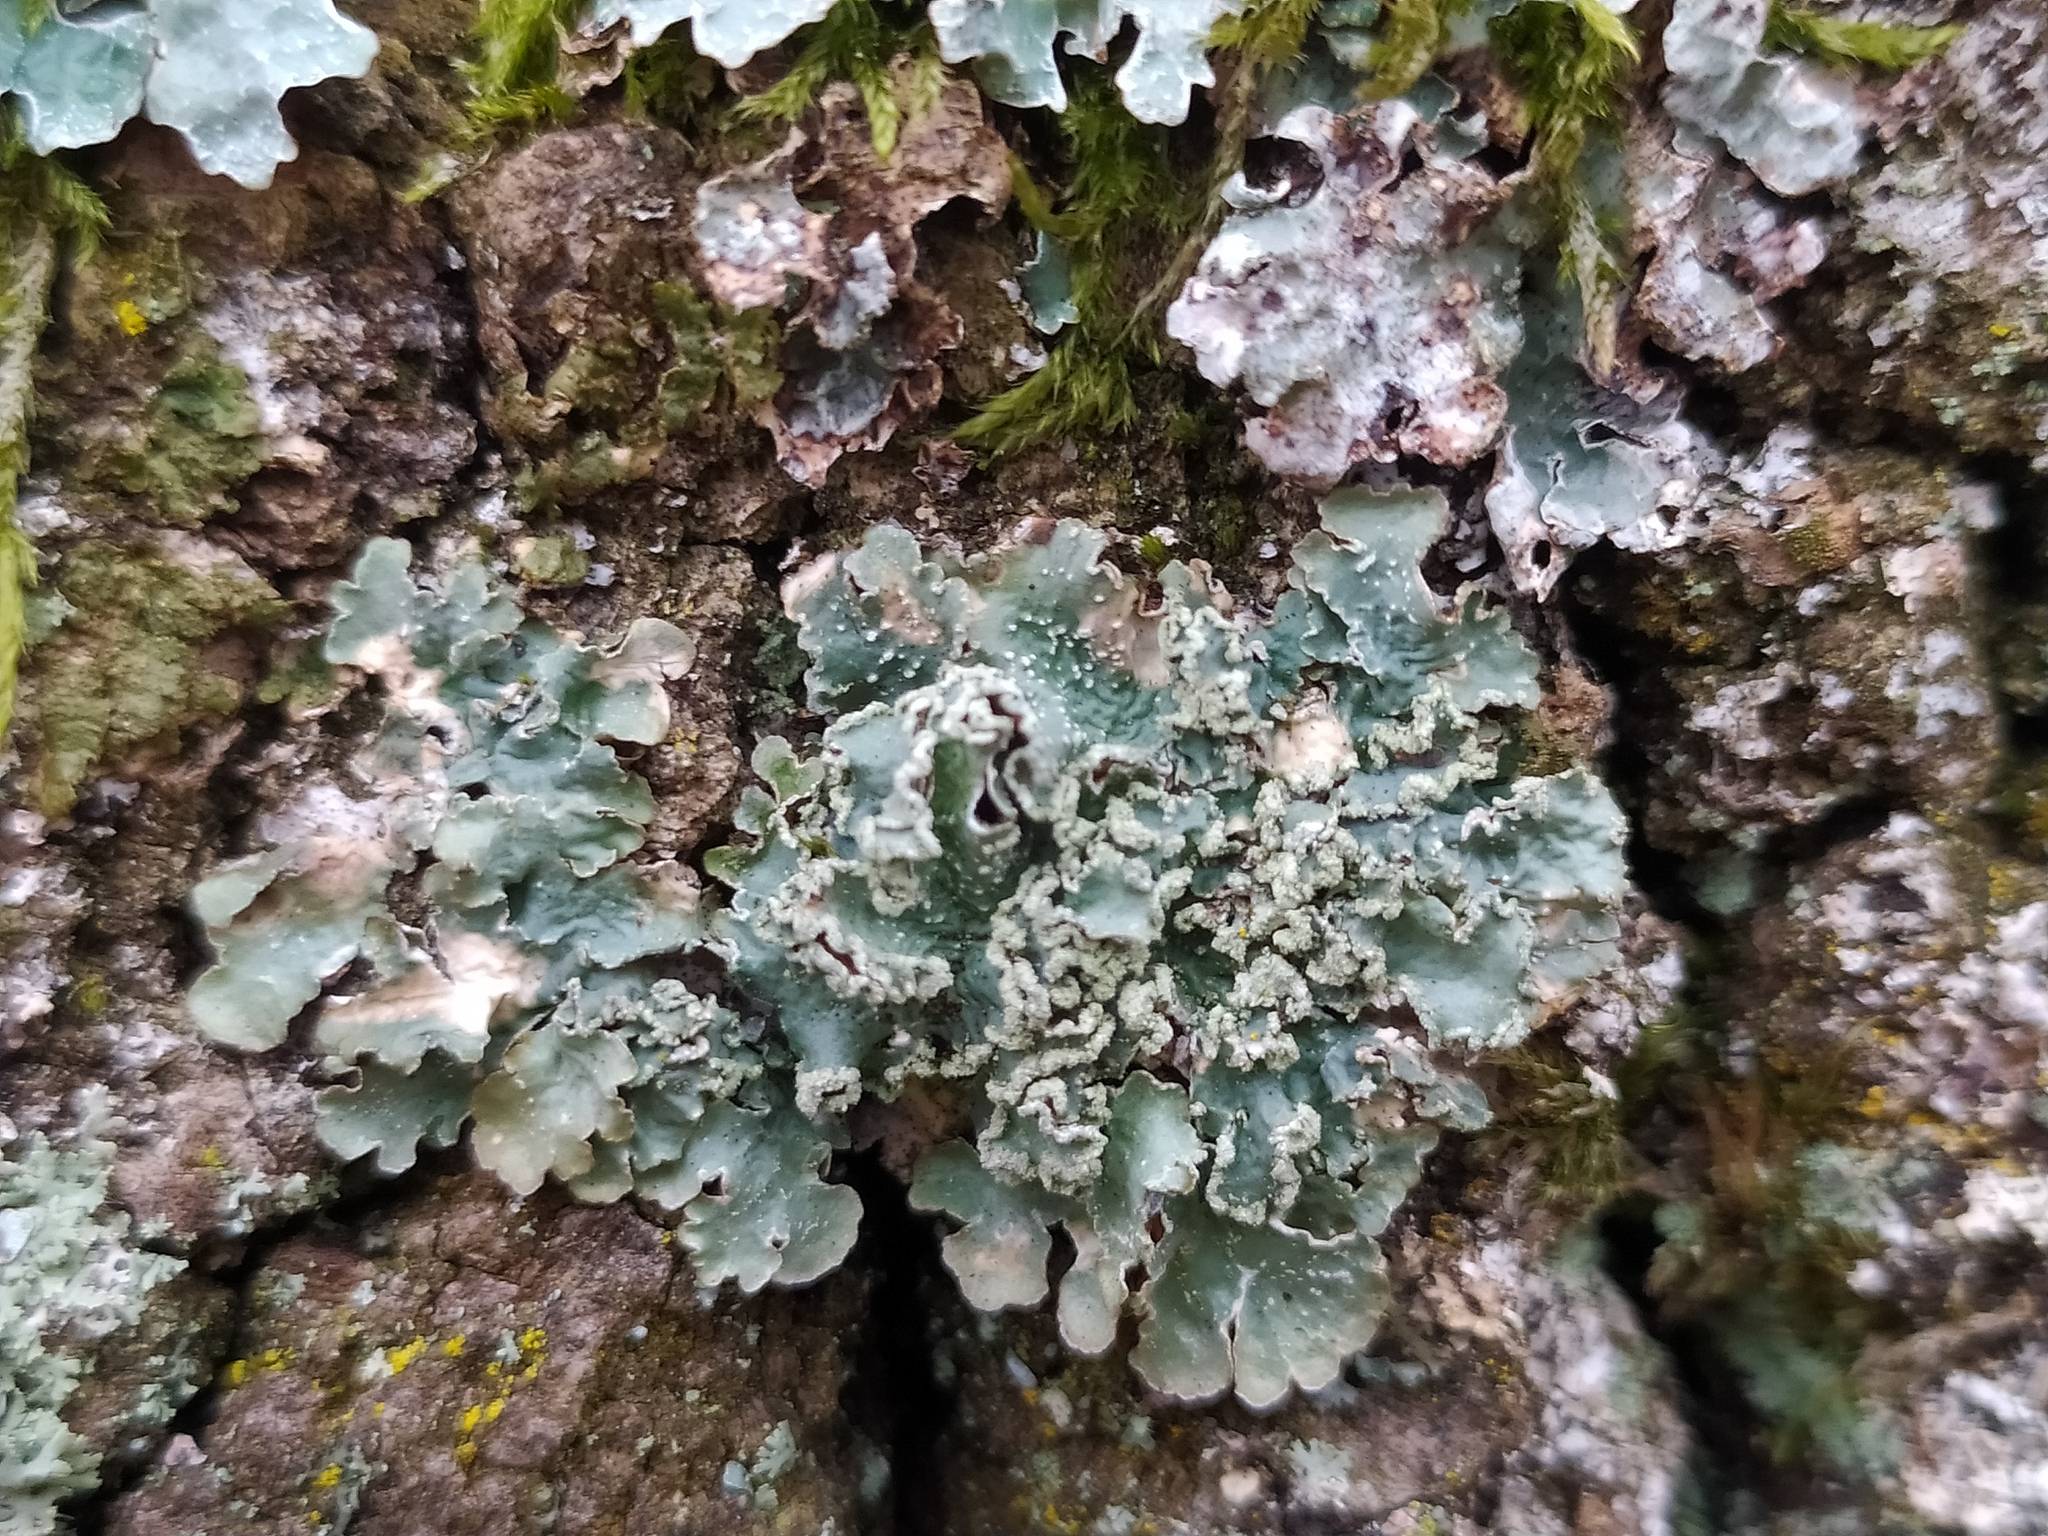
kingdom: Fungi
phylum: Ascomycota
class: Lecanoromycetes
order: Lecanorales
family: Parmeliaceae
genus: Punctelia
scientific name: Punctelia jeckeri
